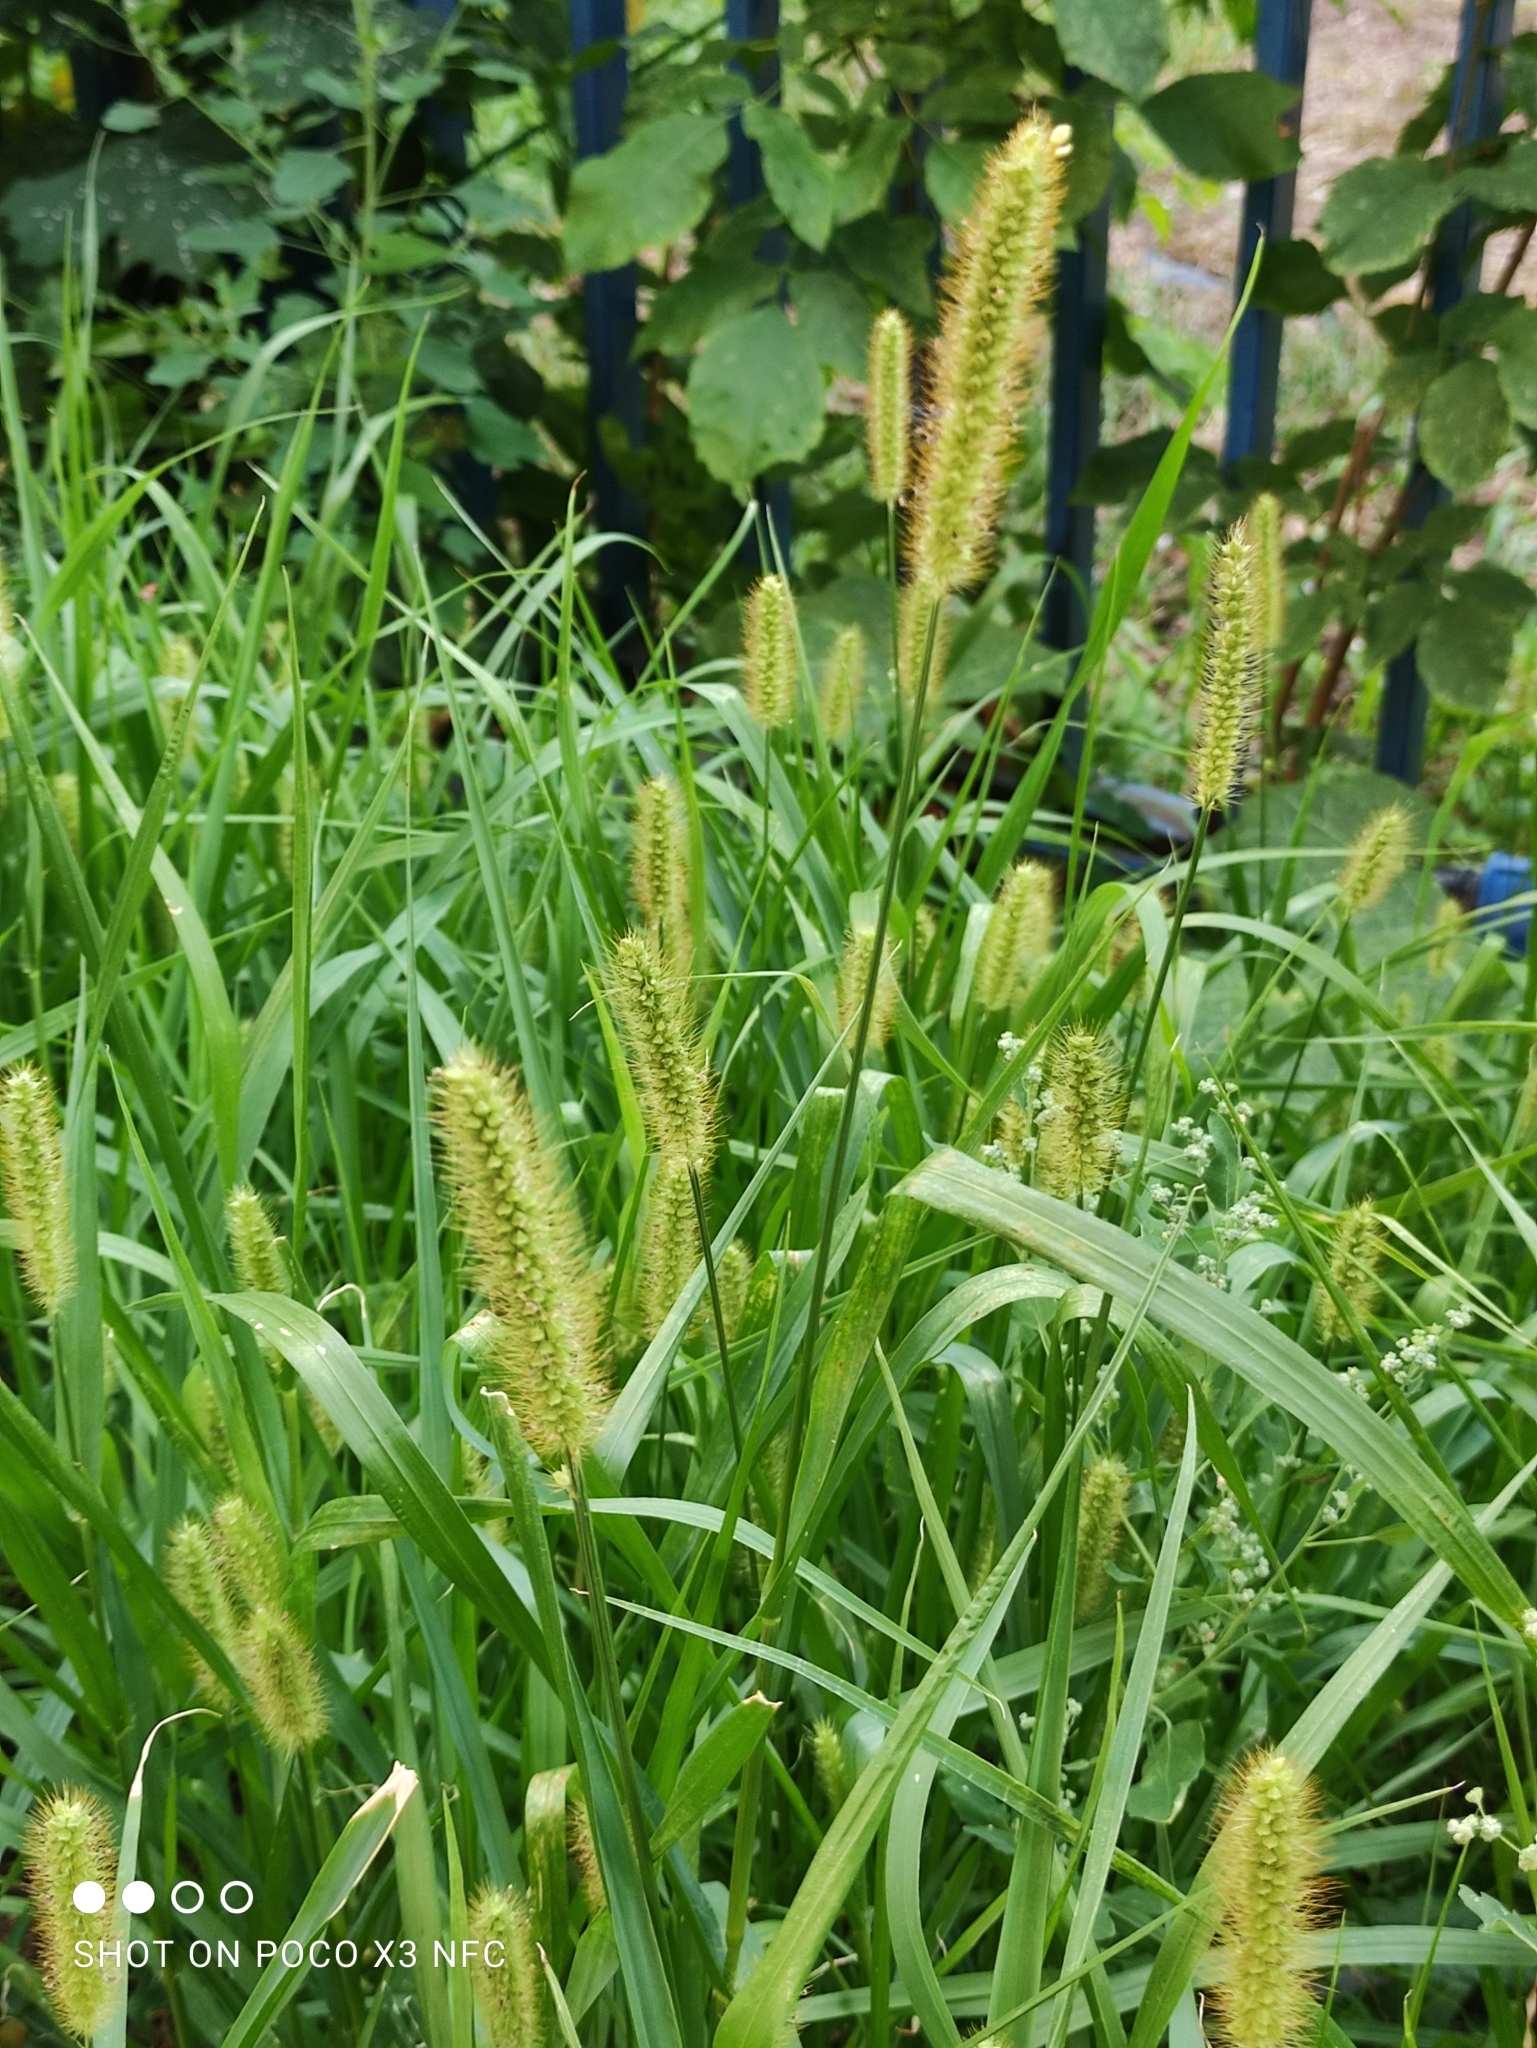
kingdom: Plantae
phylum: Tracheophyta
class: Liliopsida
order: Poales
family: Poaceae
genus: Setaria
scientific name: Setaria pumila
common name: Yellow bristle-grass
